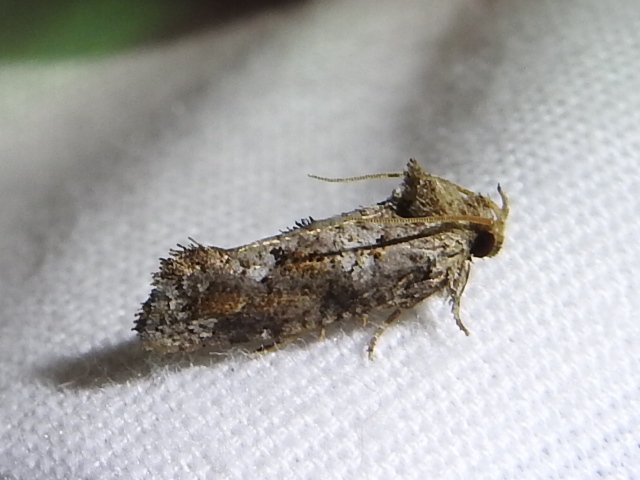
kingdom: Animalia
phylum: Arthropoda
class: Insecta
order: Lepidoptera
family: Tineidae
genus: Acrolophus
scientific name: Acrolophus piger
